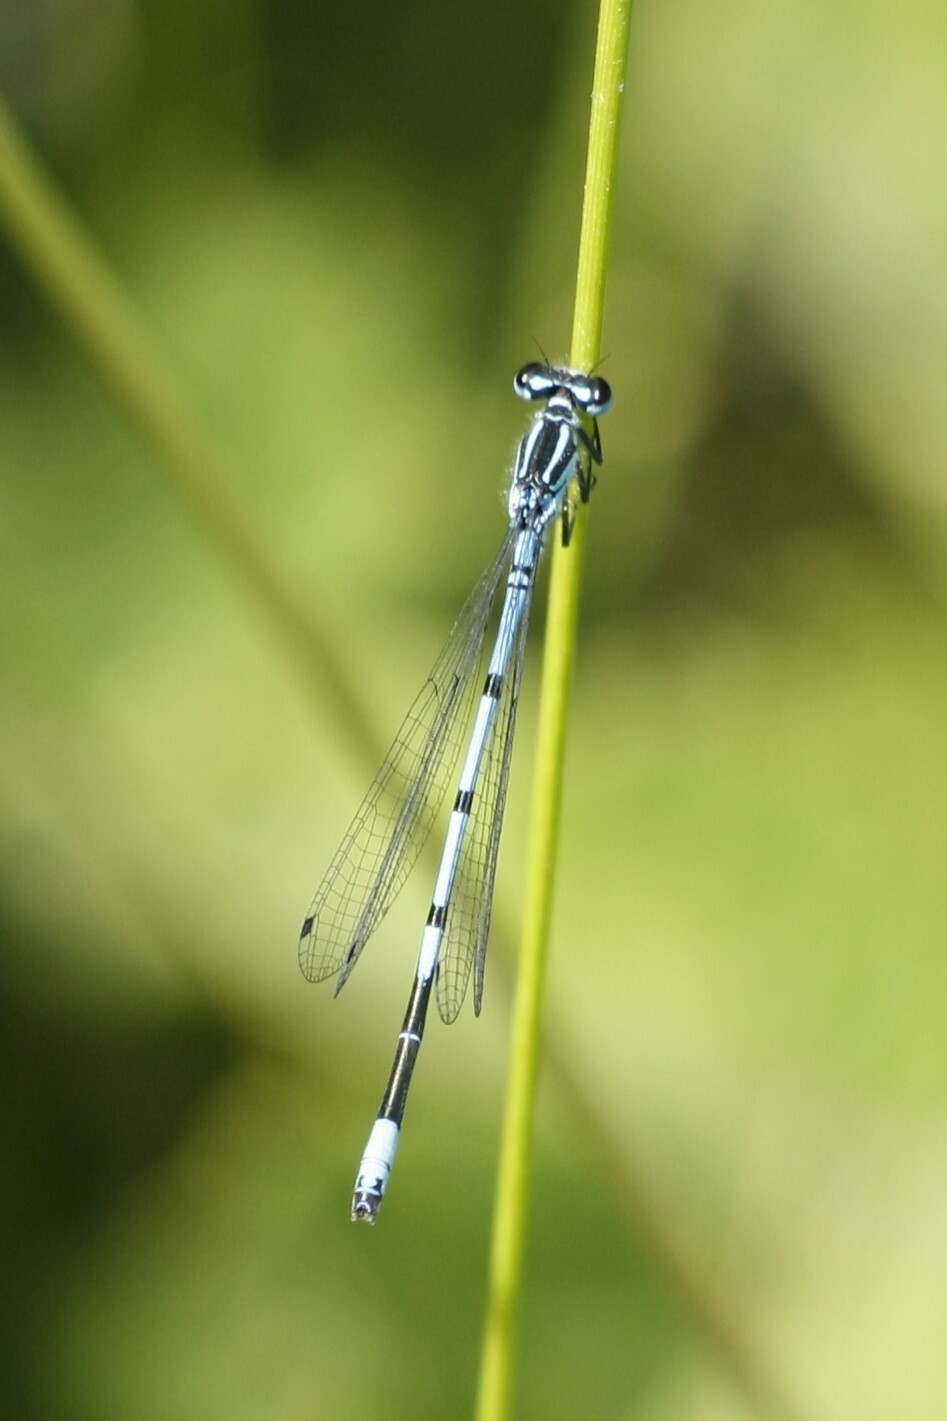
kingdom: Animalia
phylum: Arthropoda
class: Insecta
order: Odonata
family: Coenagrionidae
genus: Coenagrion
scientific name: Coenagrion puella
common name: Azure damselfly
